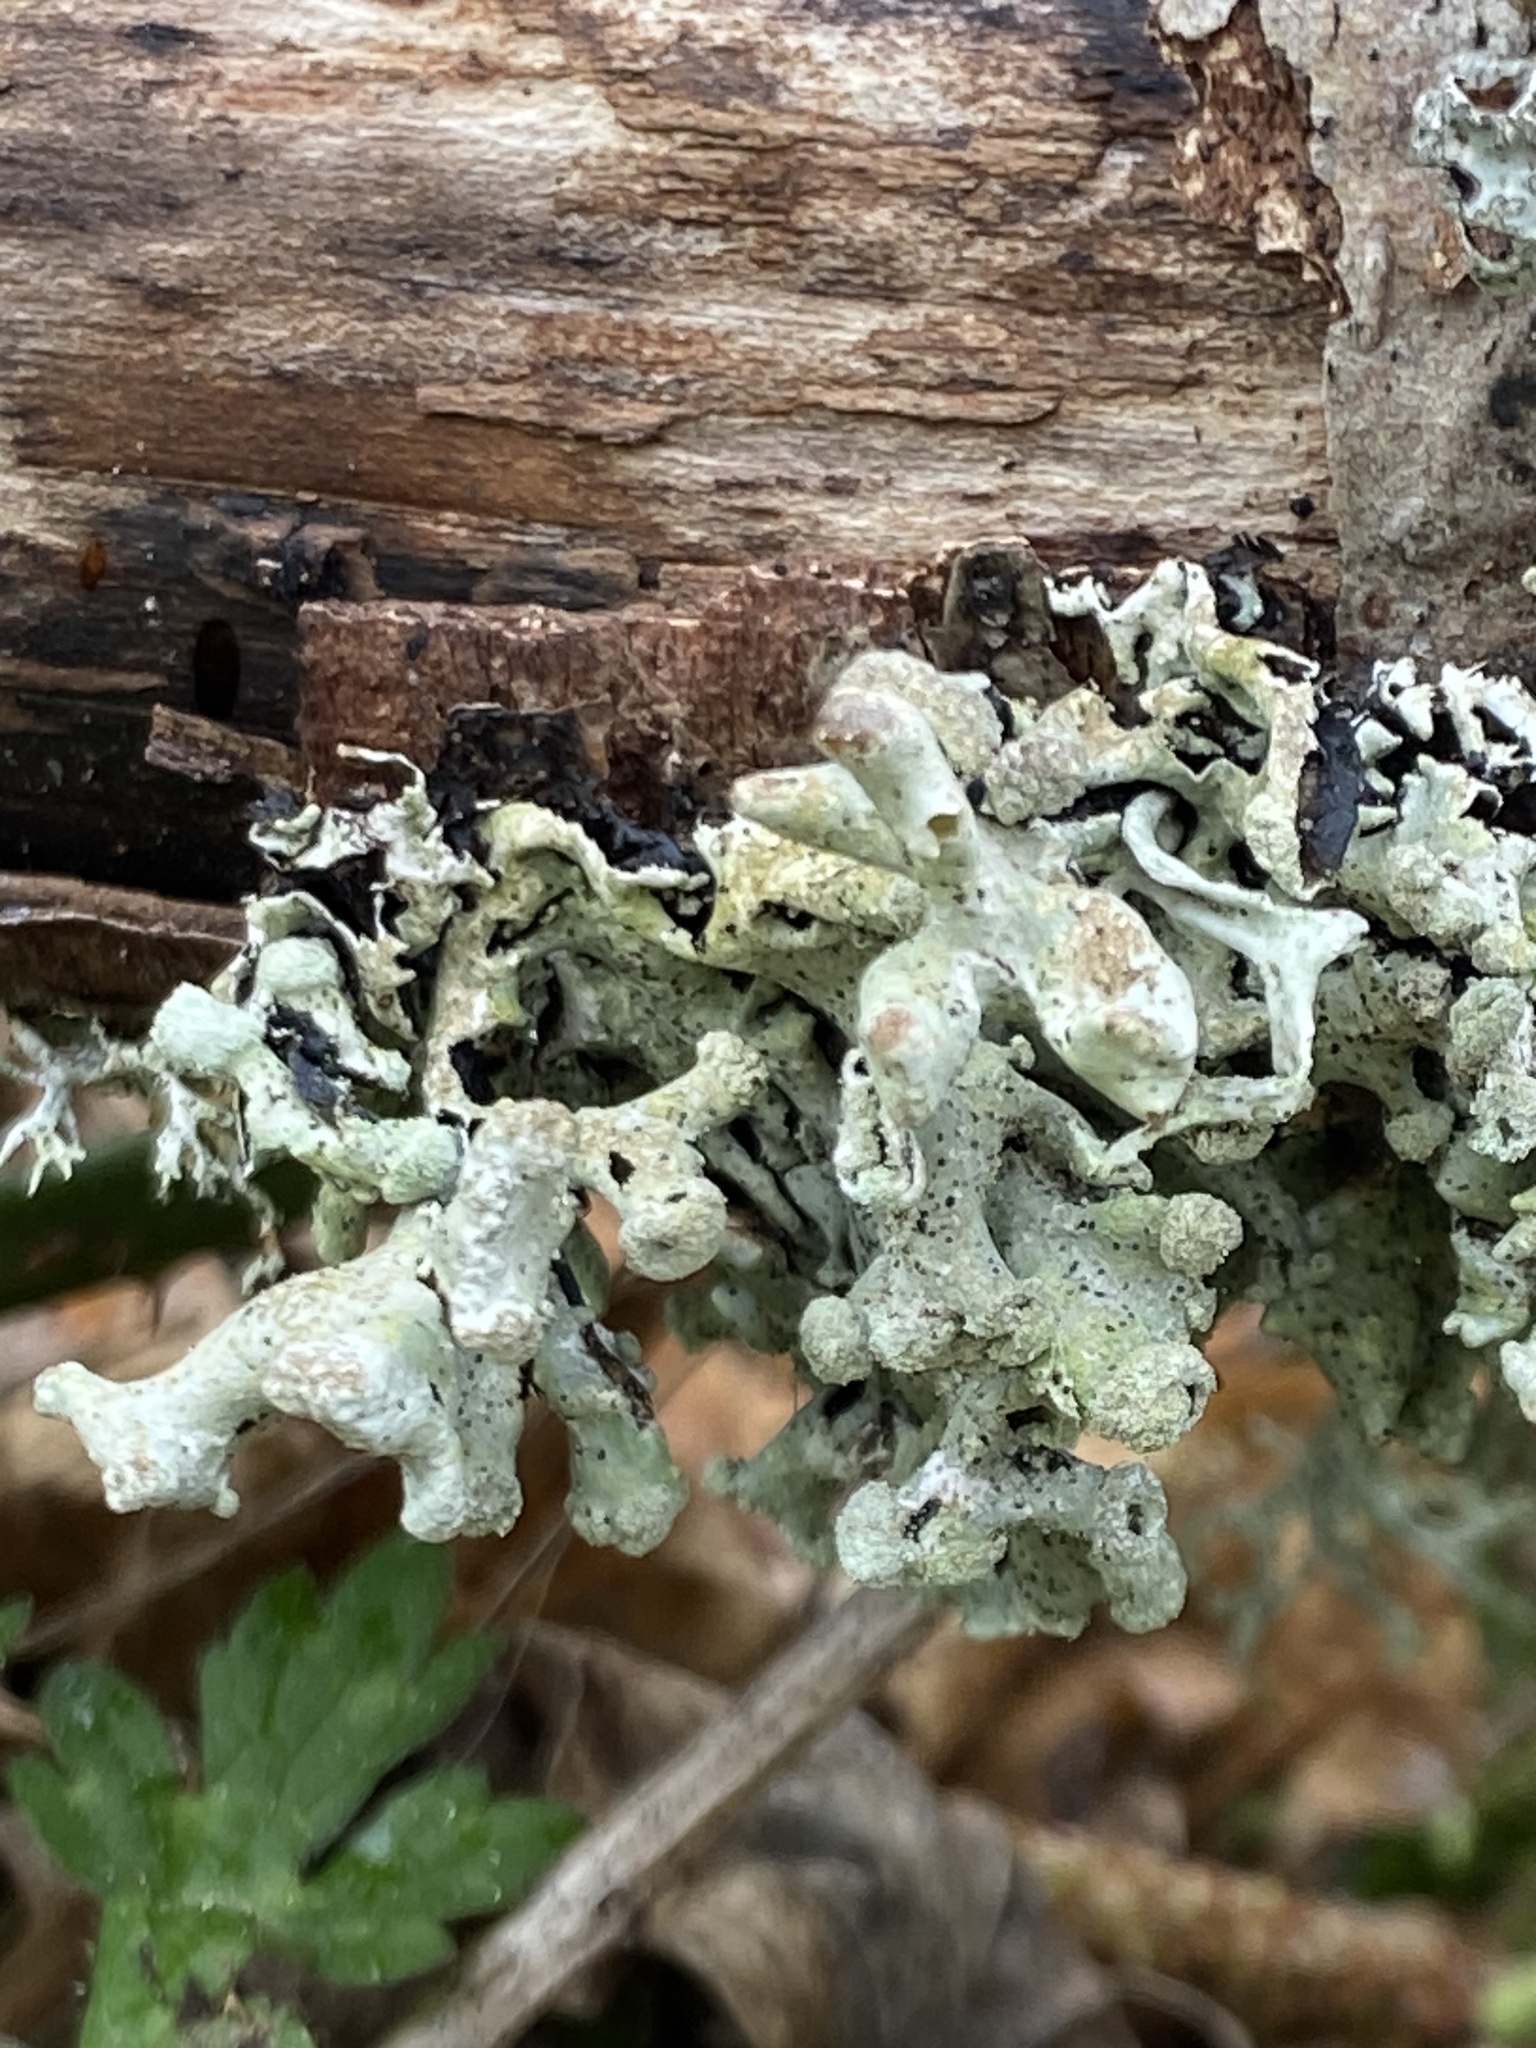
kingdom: Fungi
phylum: Ascomycota
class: Lecanoromycetes
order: Lecanorales
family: Parmeliaceae
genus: Hypogymnia
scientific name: Hypogymnia tubulosa
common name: Powder-headed tube lichen
